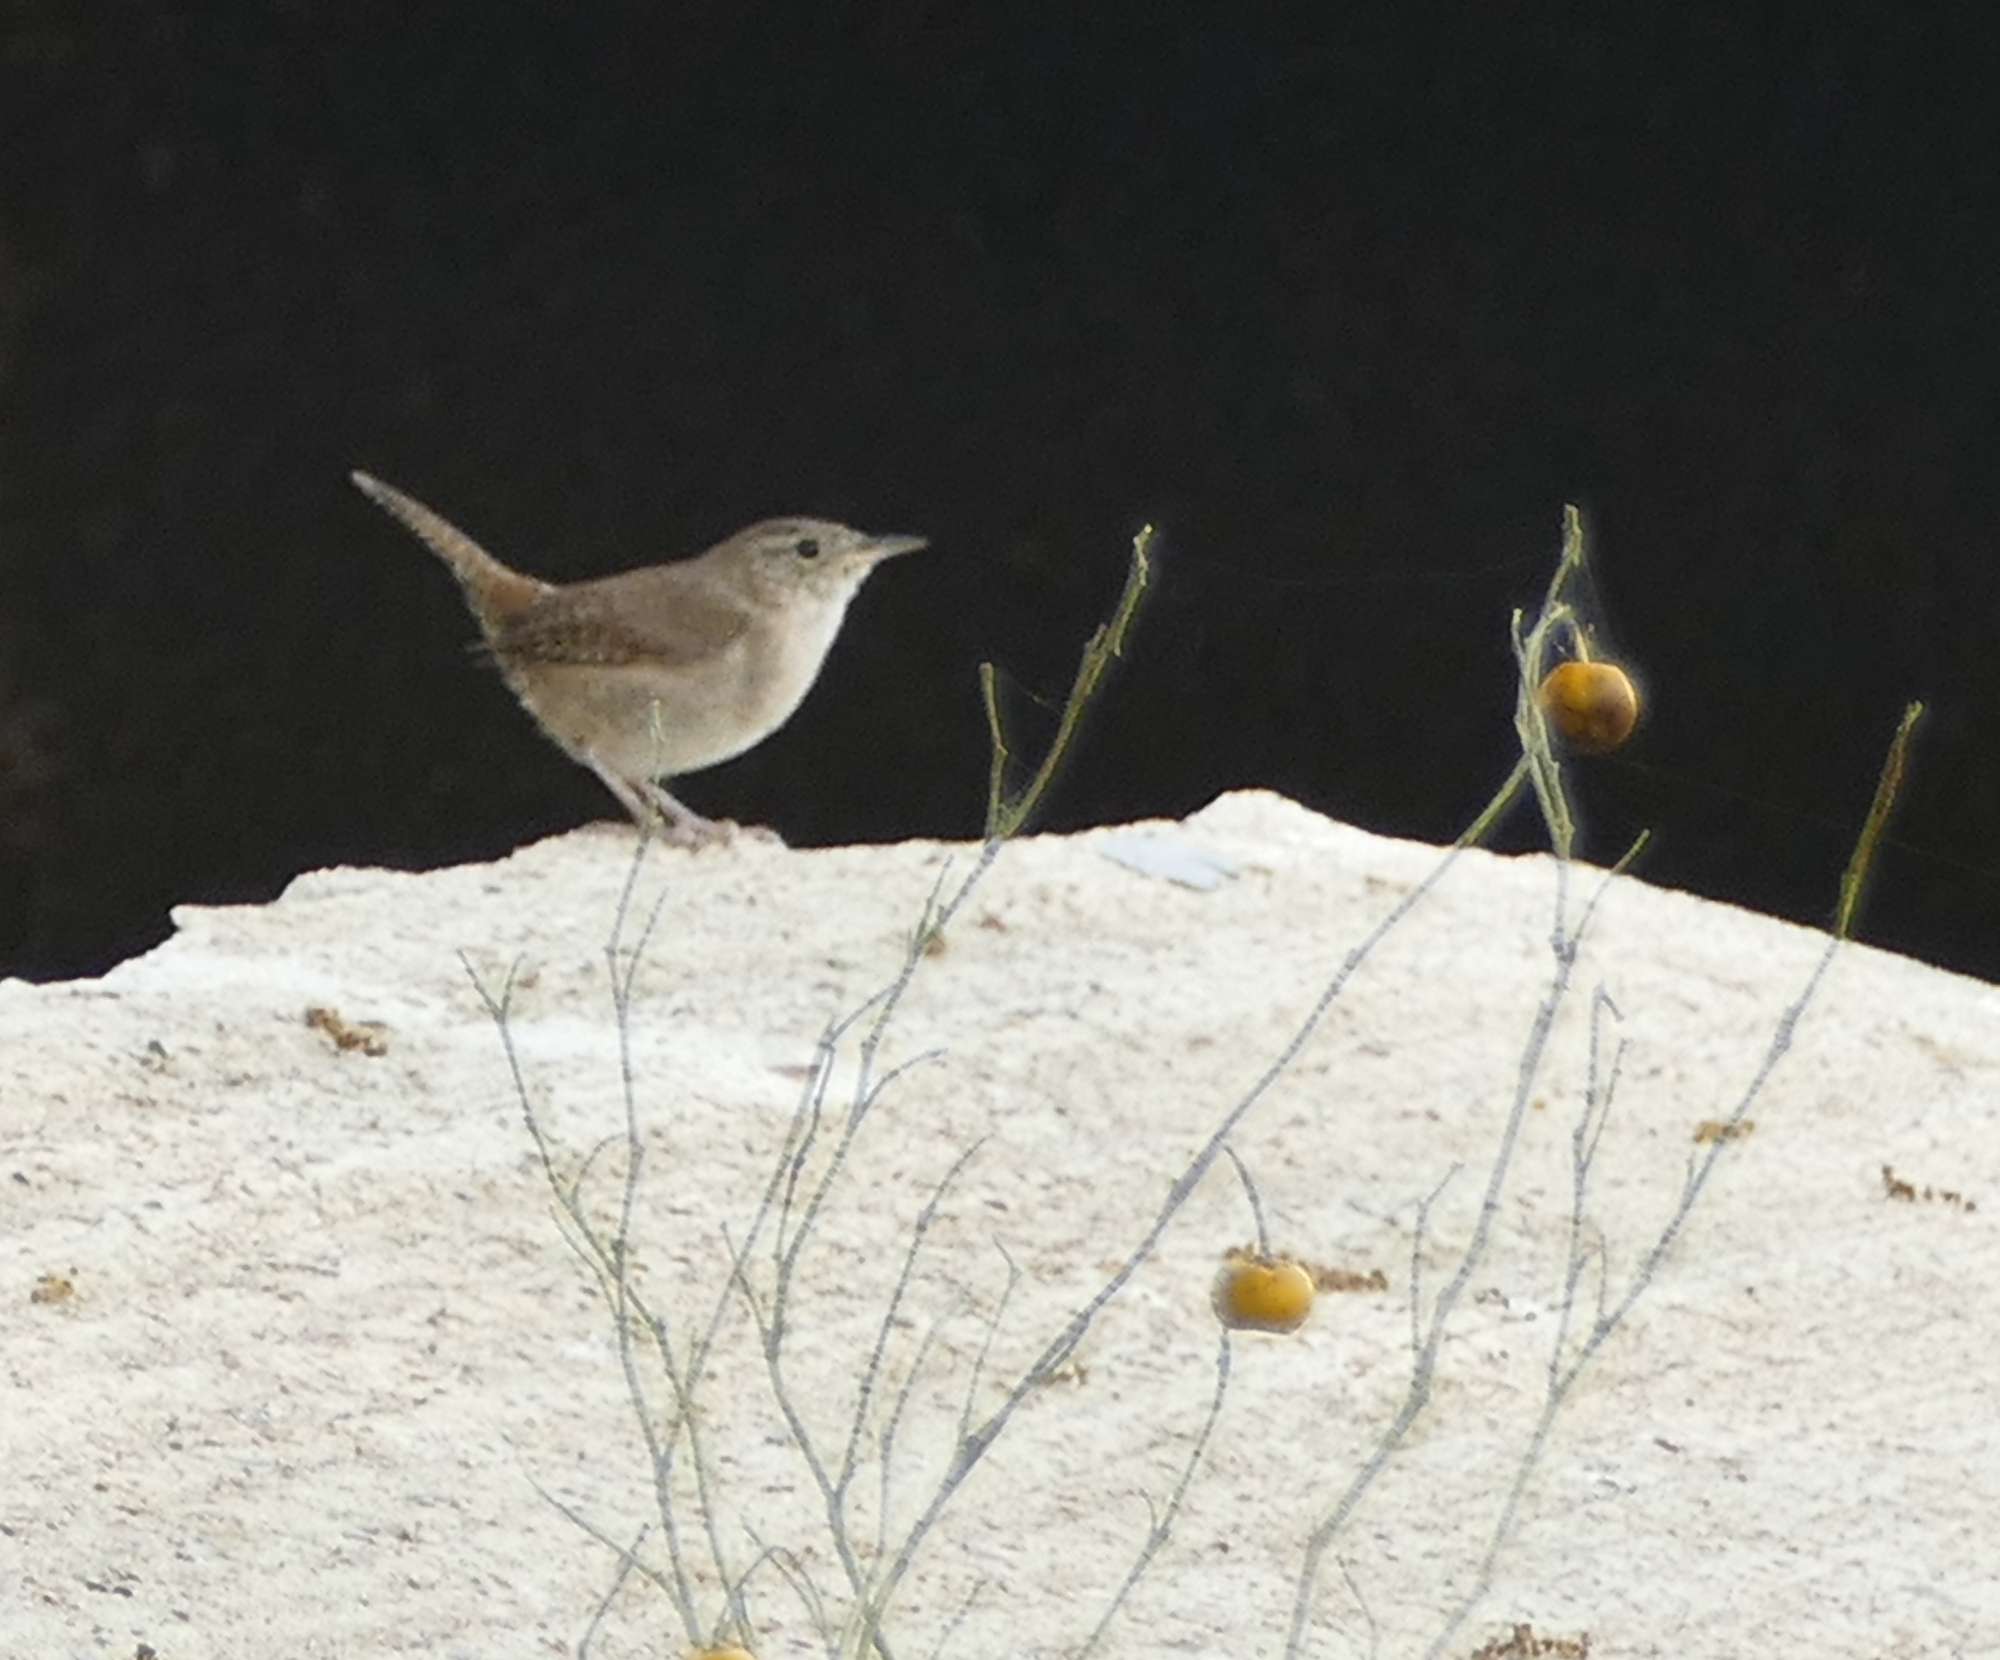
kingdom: Animalia
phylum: Chordata
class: Aves
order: Passeriformes
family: Troglodytidae
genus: Troglodytes
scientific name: Troglodytes aedon
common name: House wren
